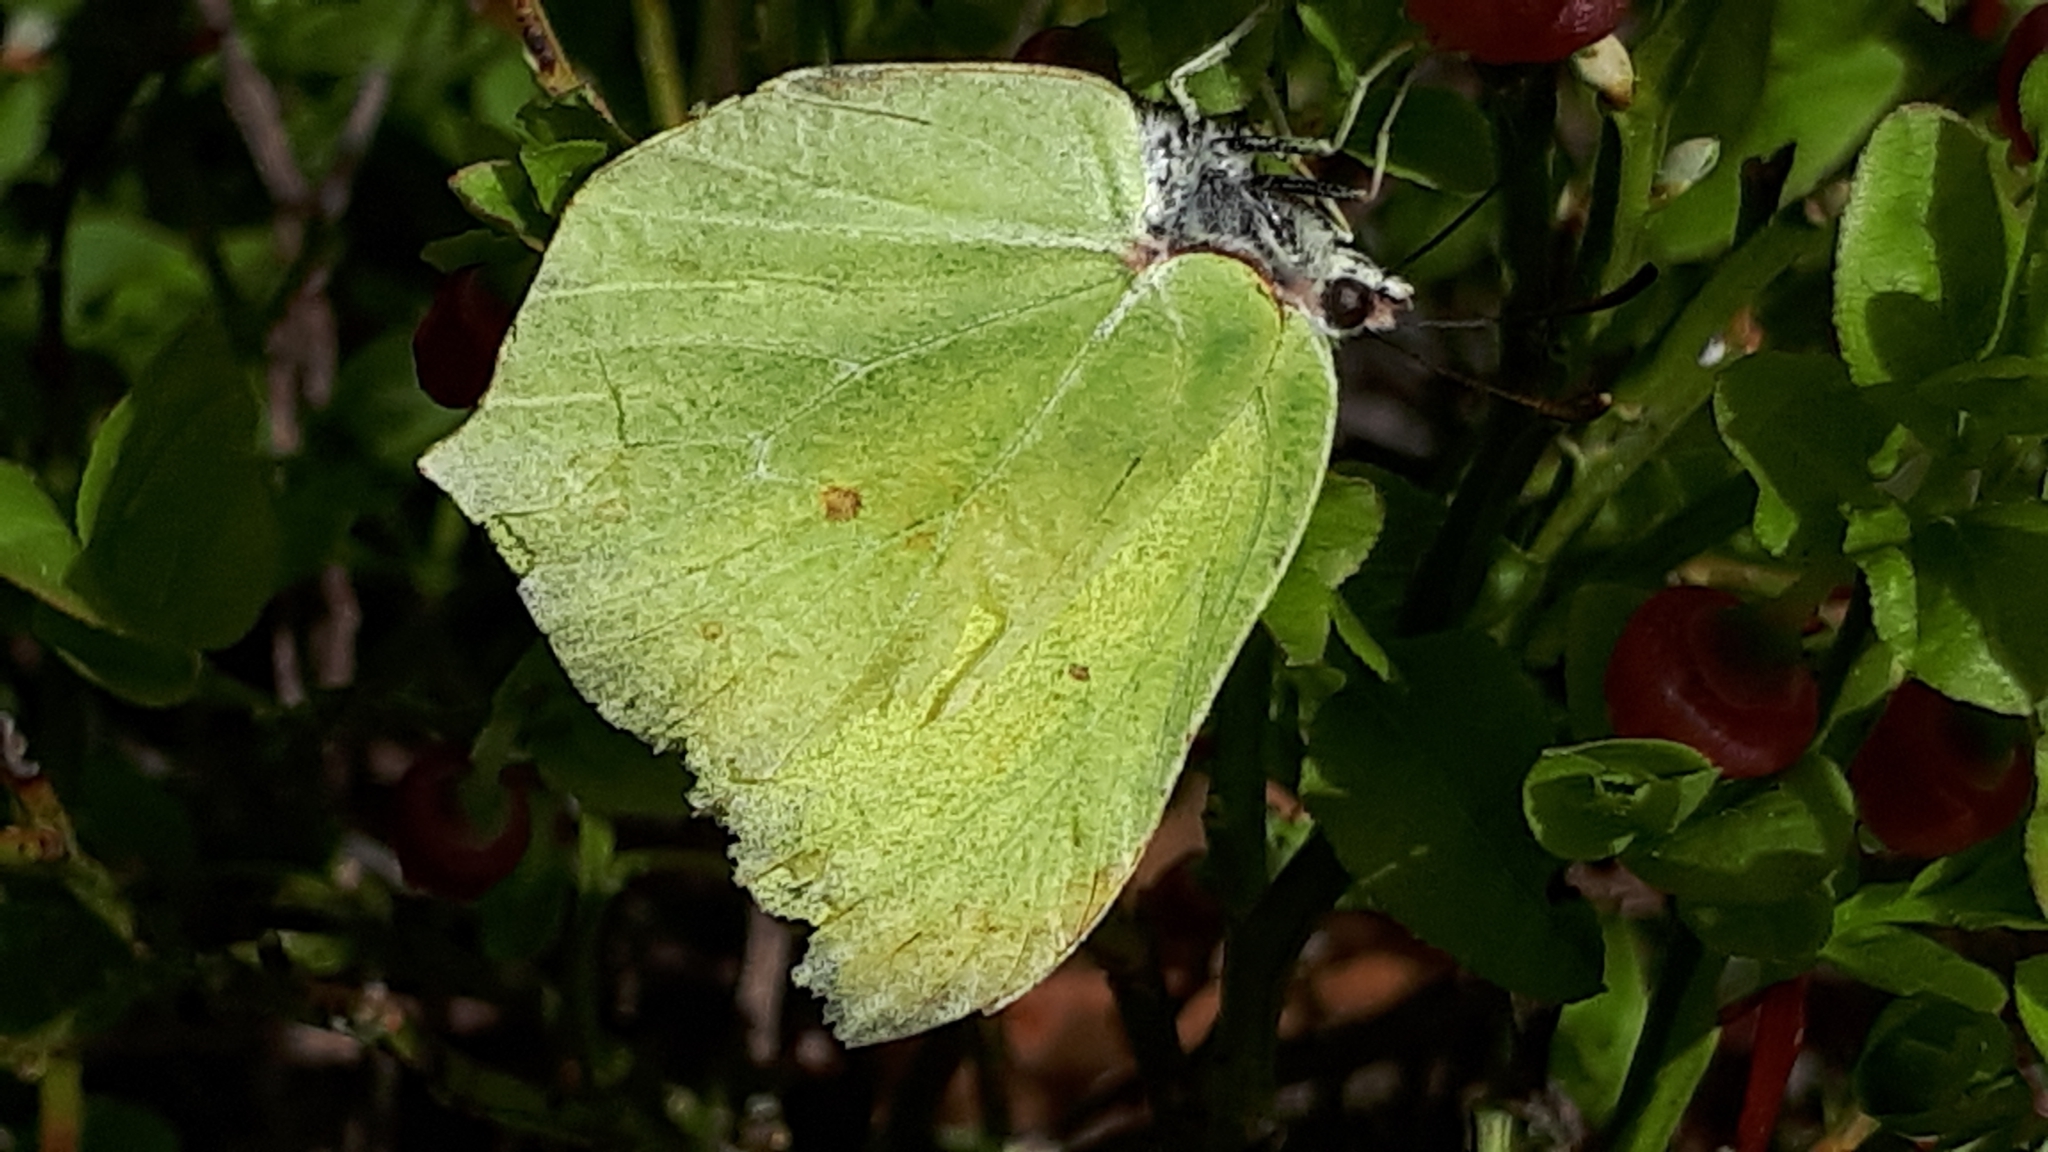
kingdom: Animalia
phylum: Arthropoda
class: Insecta
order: Lepidoptera
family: Pieridae
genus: Gonepteryx
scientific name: Gonepteryx rhamni
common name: Brimstone
